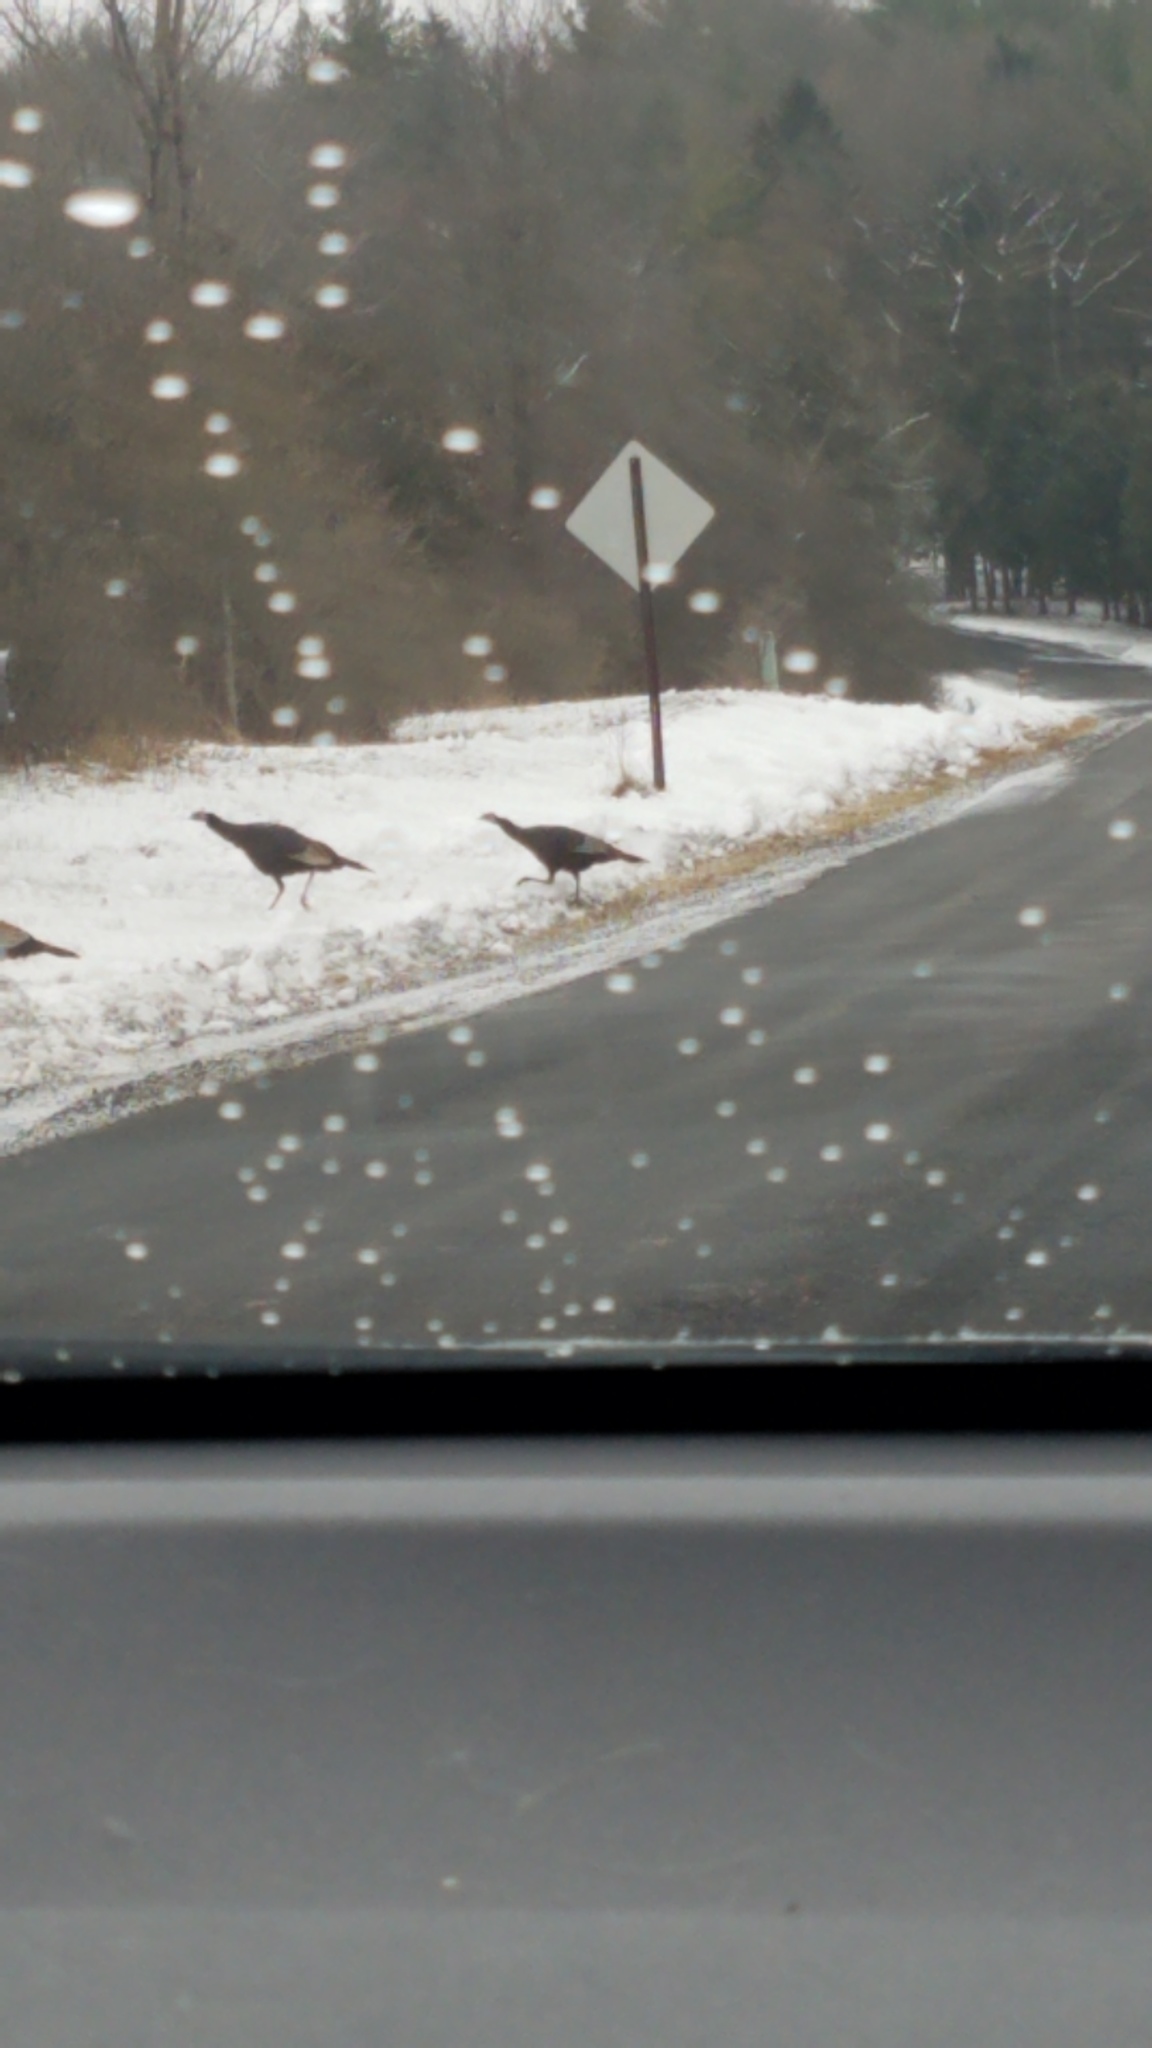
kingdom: Animalia
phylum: Chordata
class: Aves
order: Galliformes
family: Phasianidae
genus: Meleagris
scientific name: Meleagris gallopavo
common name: Wild turkey
